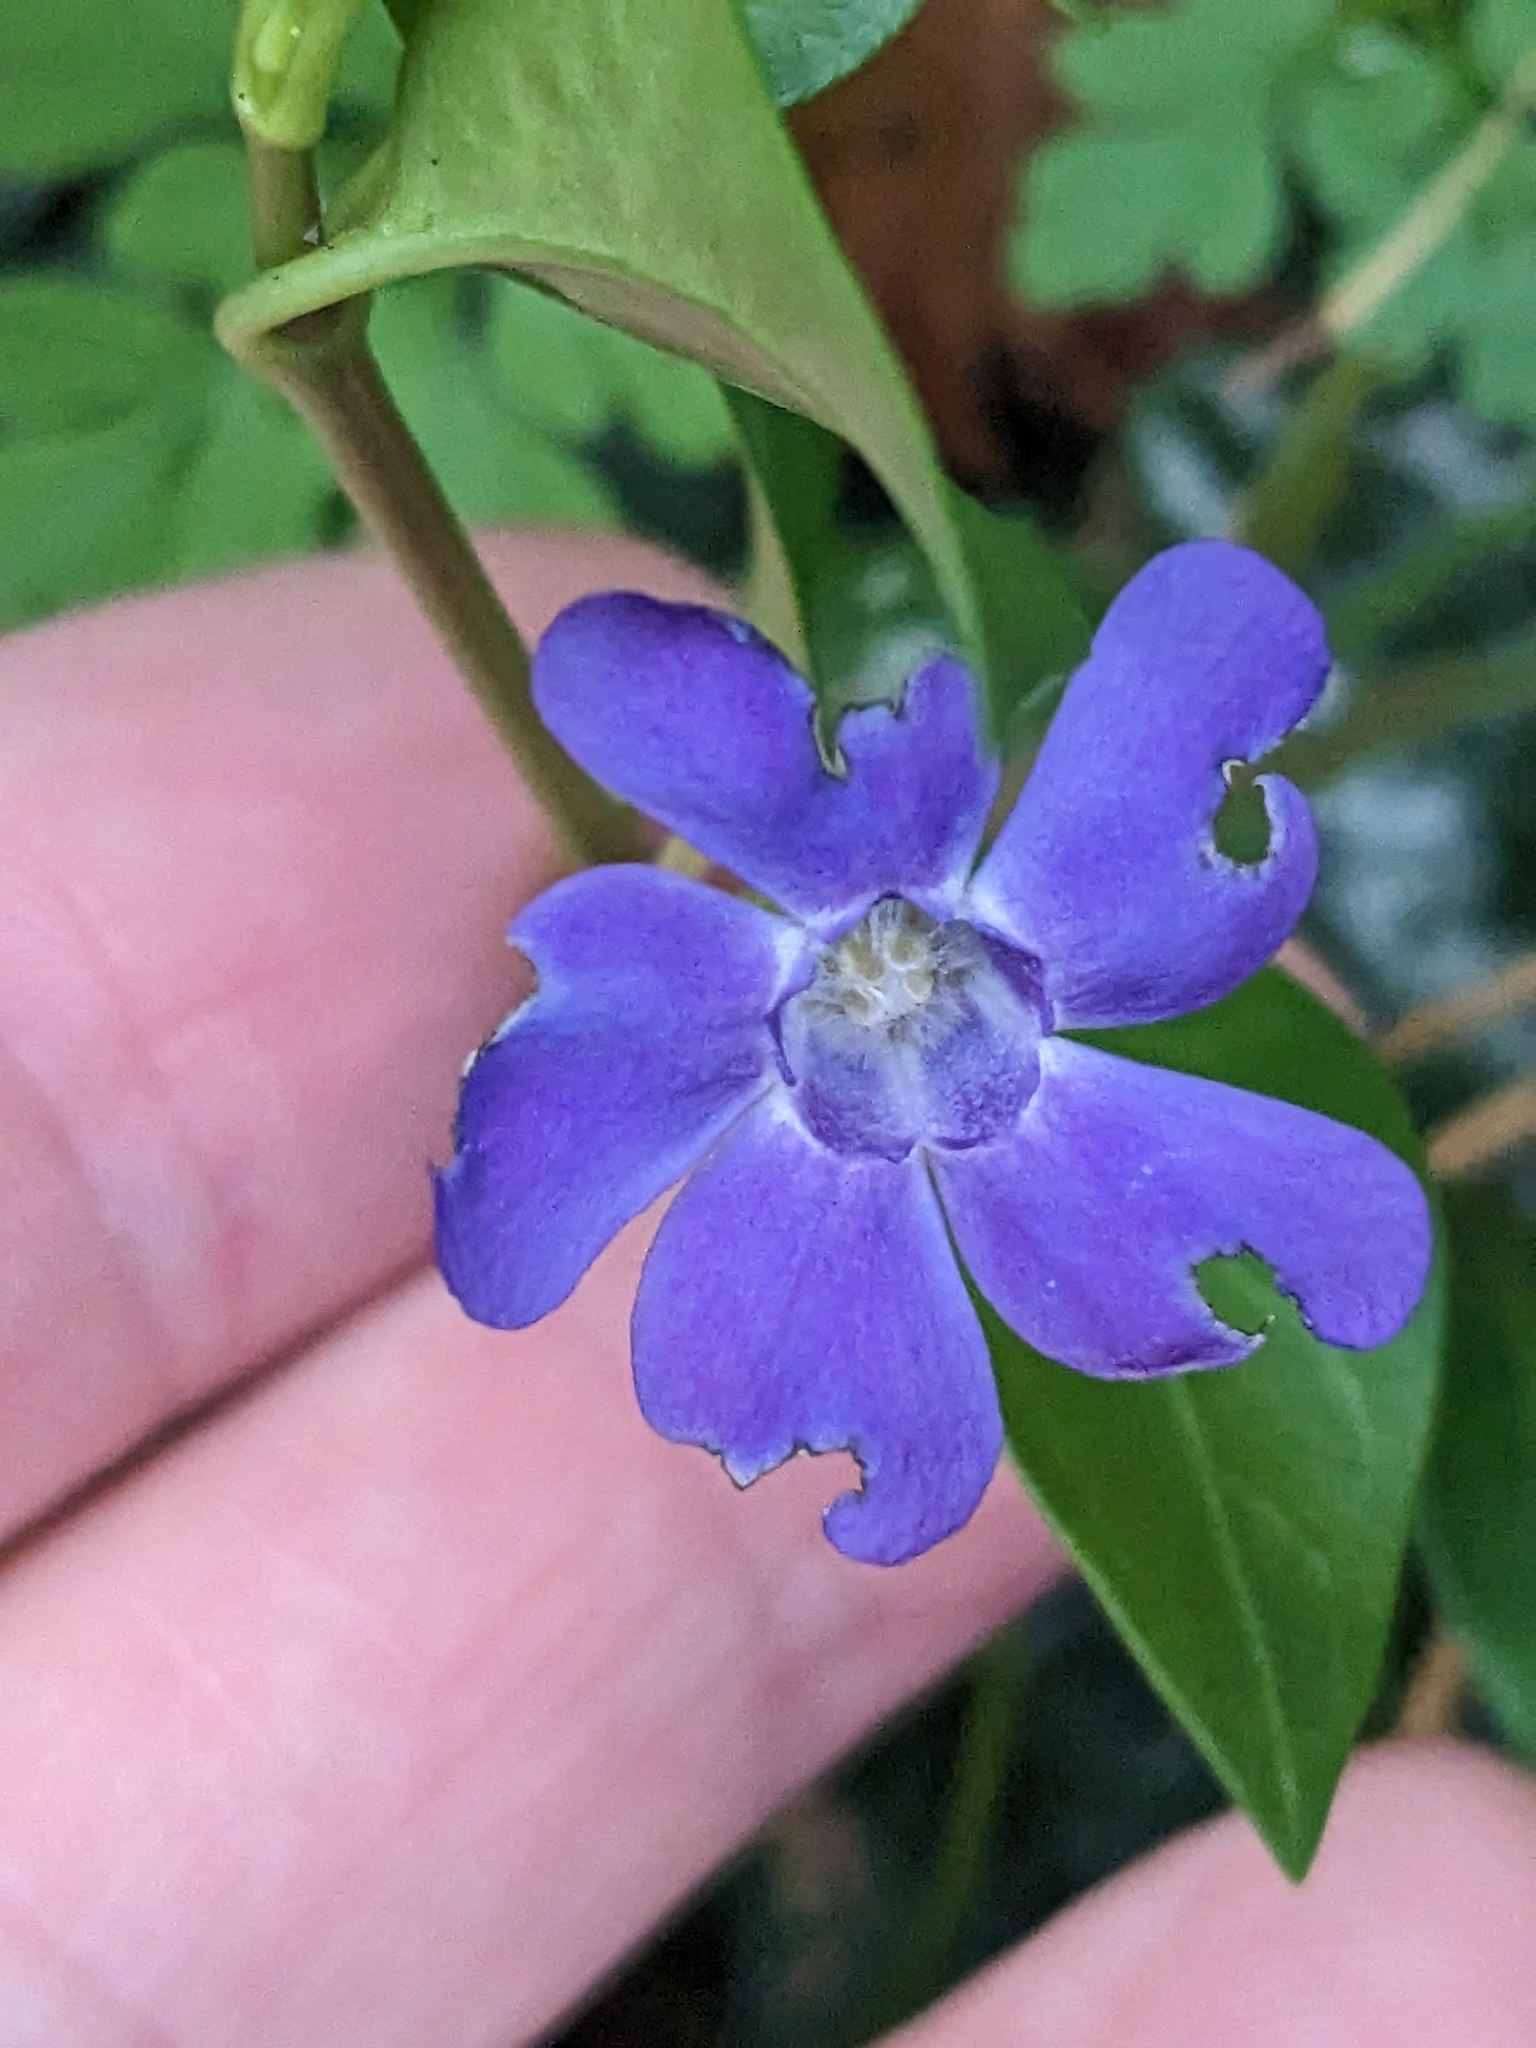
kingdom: Plantae
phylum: Tracheophyta
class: Magnoliopsida
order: Gentianales
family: Apocynaceae
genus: Vinca
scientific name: Vinca minor
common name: Lesser periwinkle
